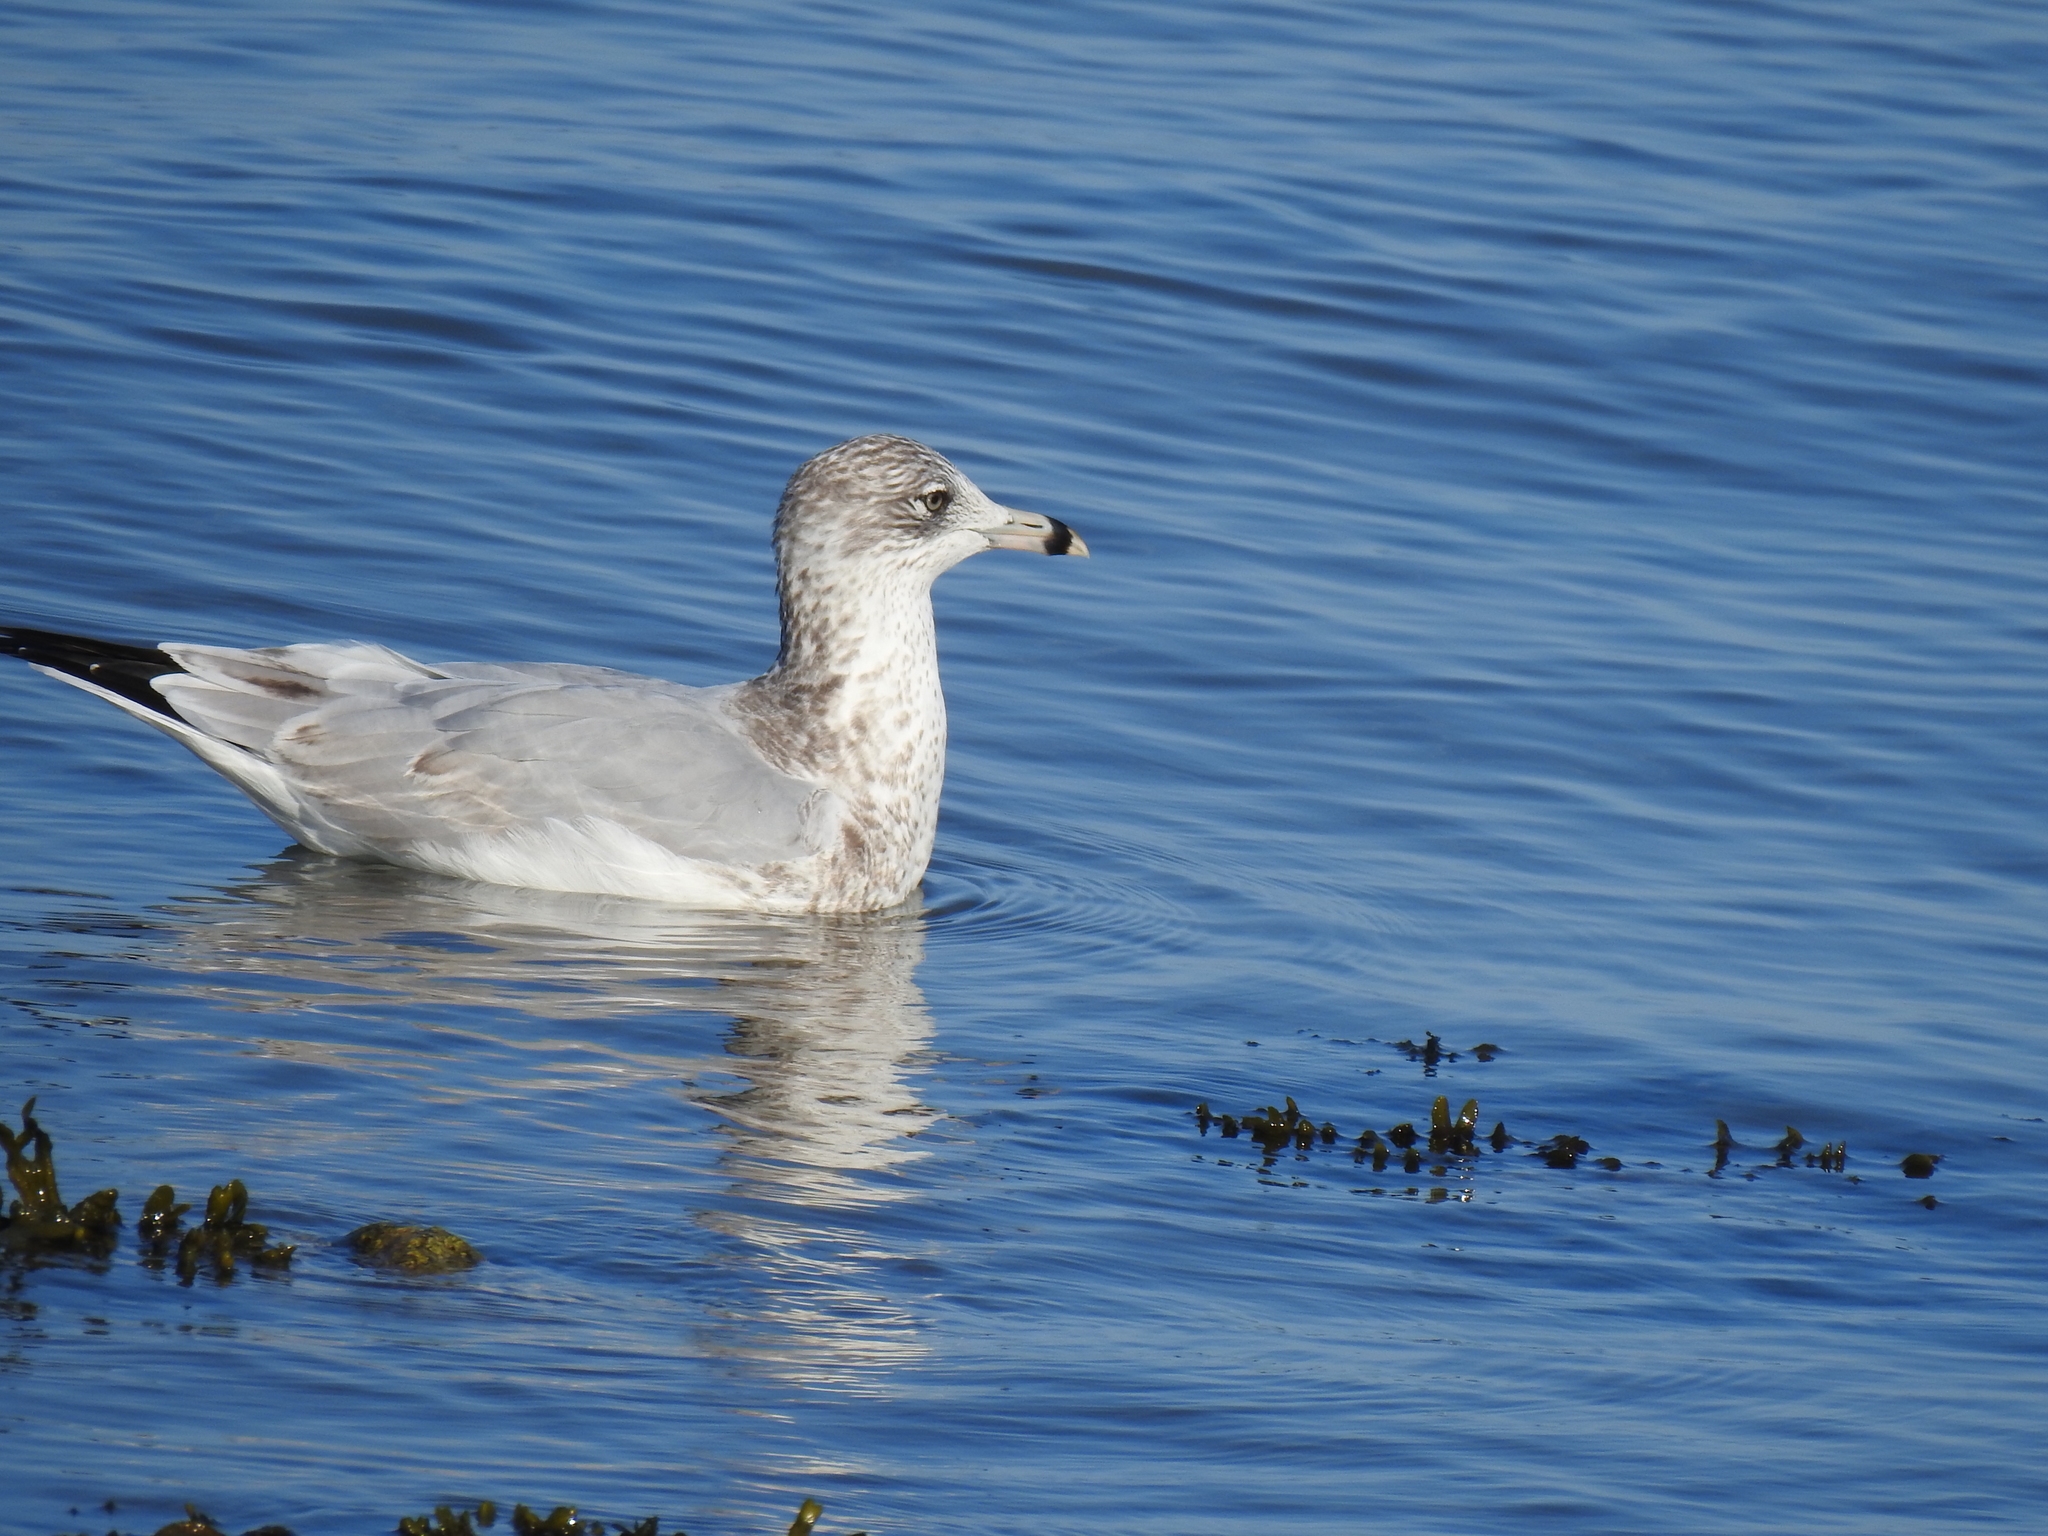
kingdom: Animalia
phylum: Chordata
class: Aves
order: Charadriiformes
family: Laridae
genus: Larus
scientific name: Larus delawarensis
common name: Ring-billed gull
